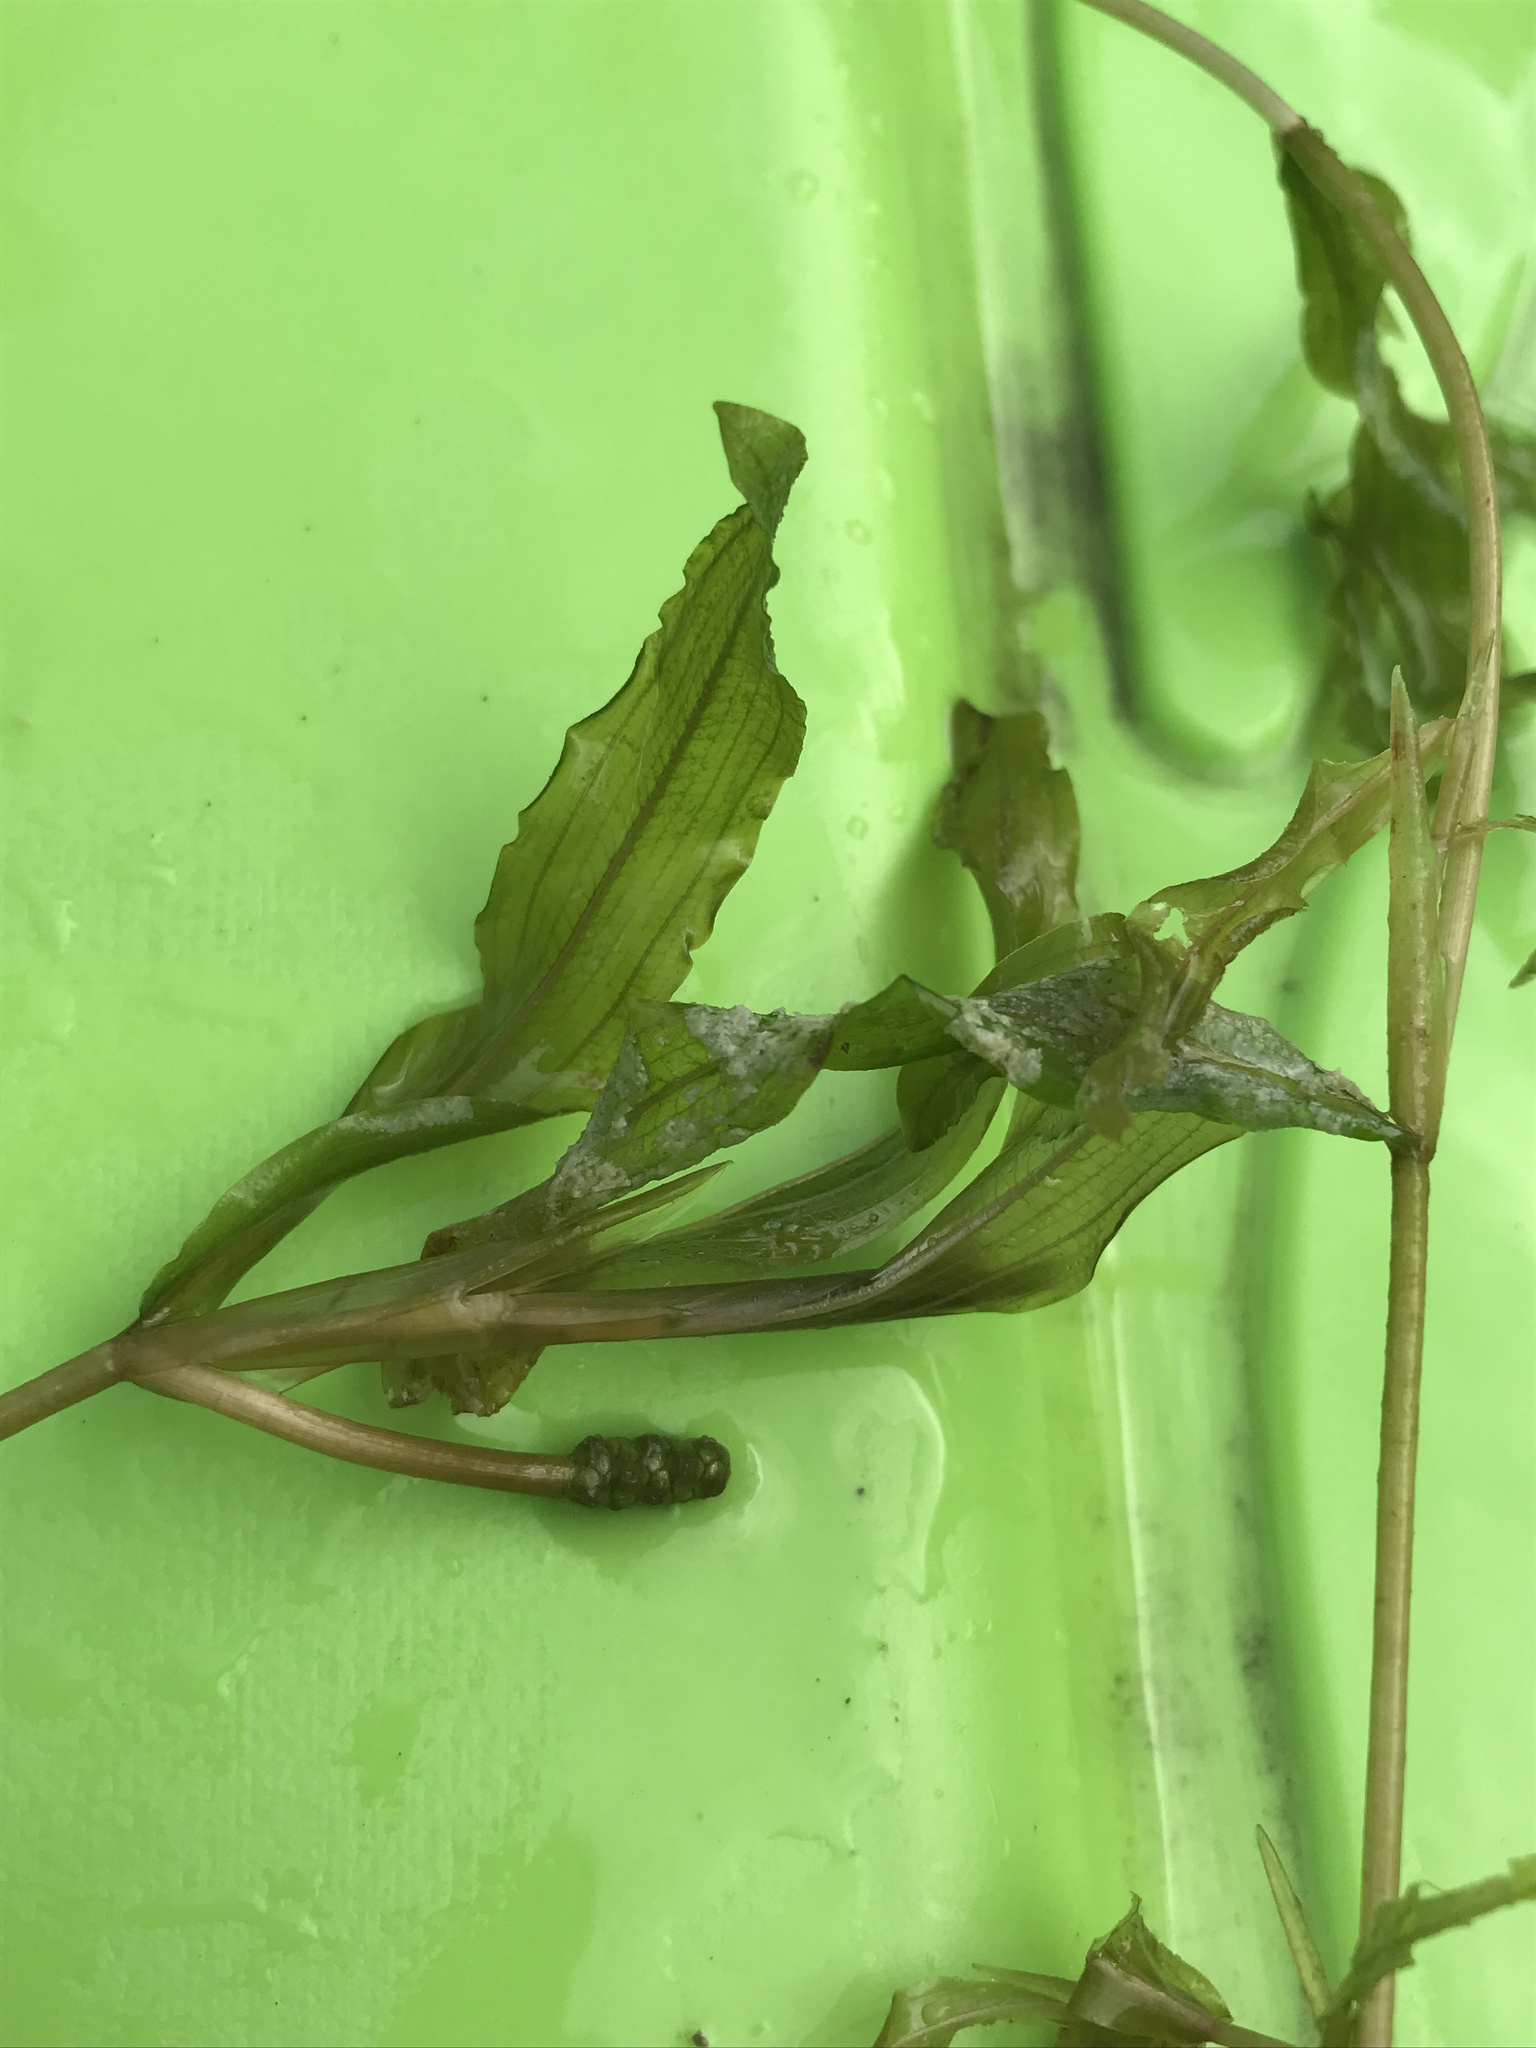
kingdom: Plantae
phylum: Tracheophyta
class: Liliopsida
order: Alismatales
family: Potamogetonaceae
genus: Potamogeton
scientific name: Potamogeton praelongus
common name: Long-stalked pondweed
